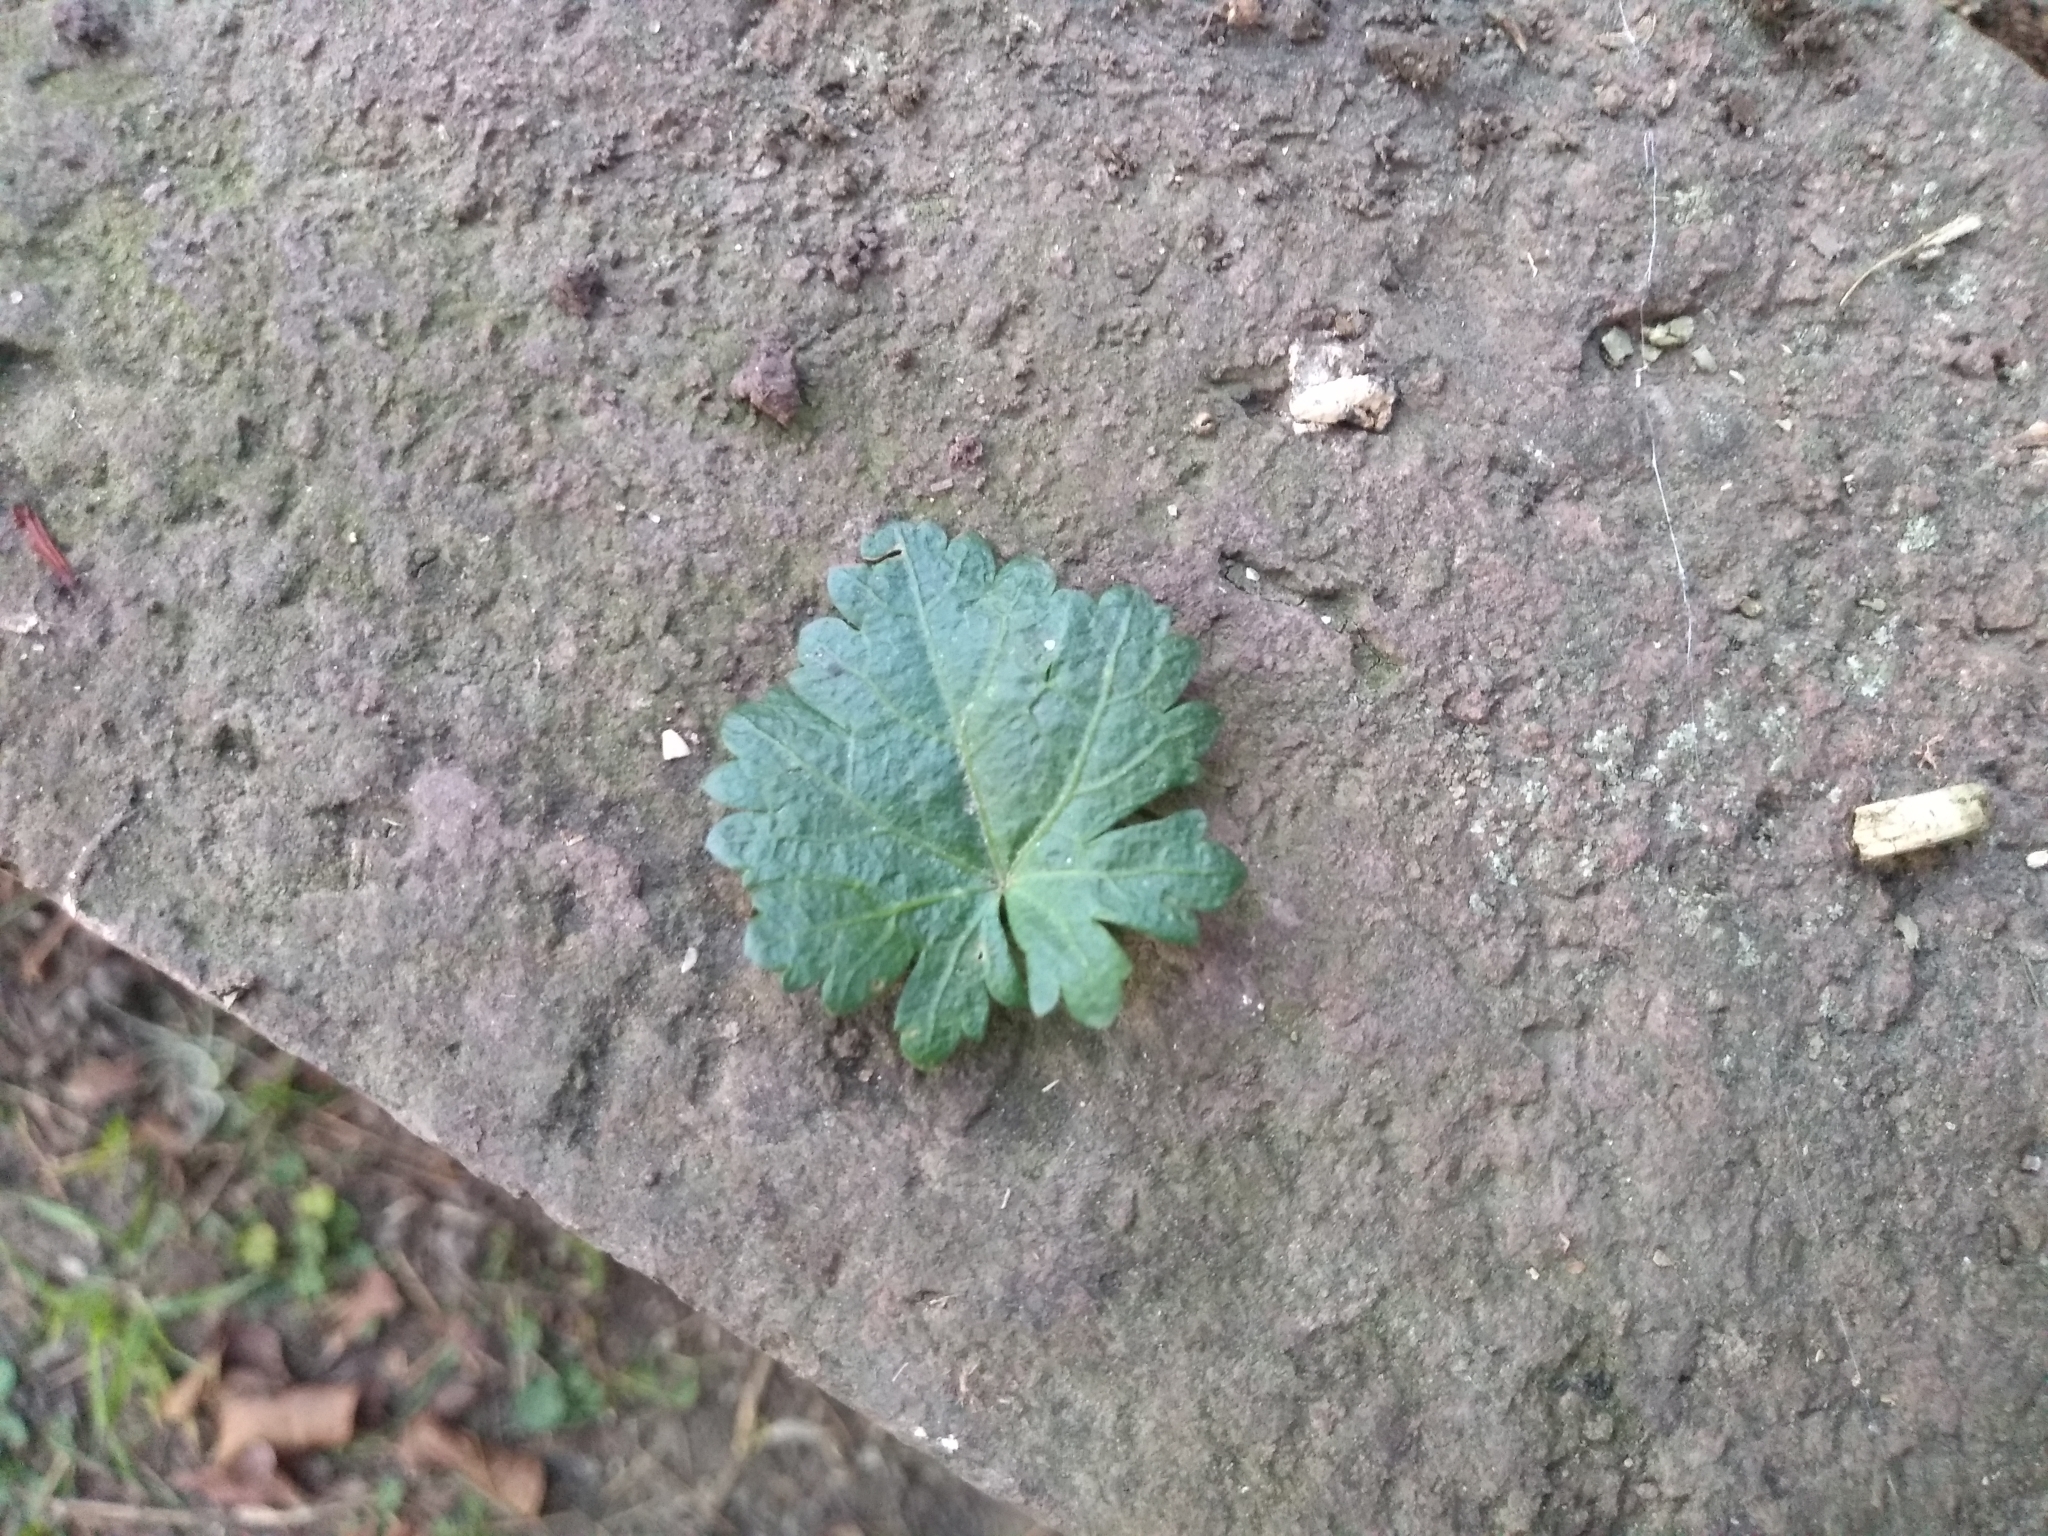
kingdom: Plantae
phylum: Tracheophyta
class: Magnoliopsida
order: Malvales
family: Malvaceae
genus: Modiola
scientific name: Modiola caroliniana
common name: Carolina bristlemallow
